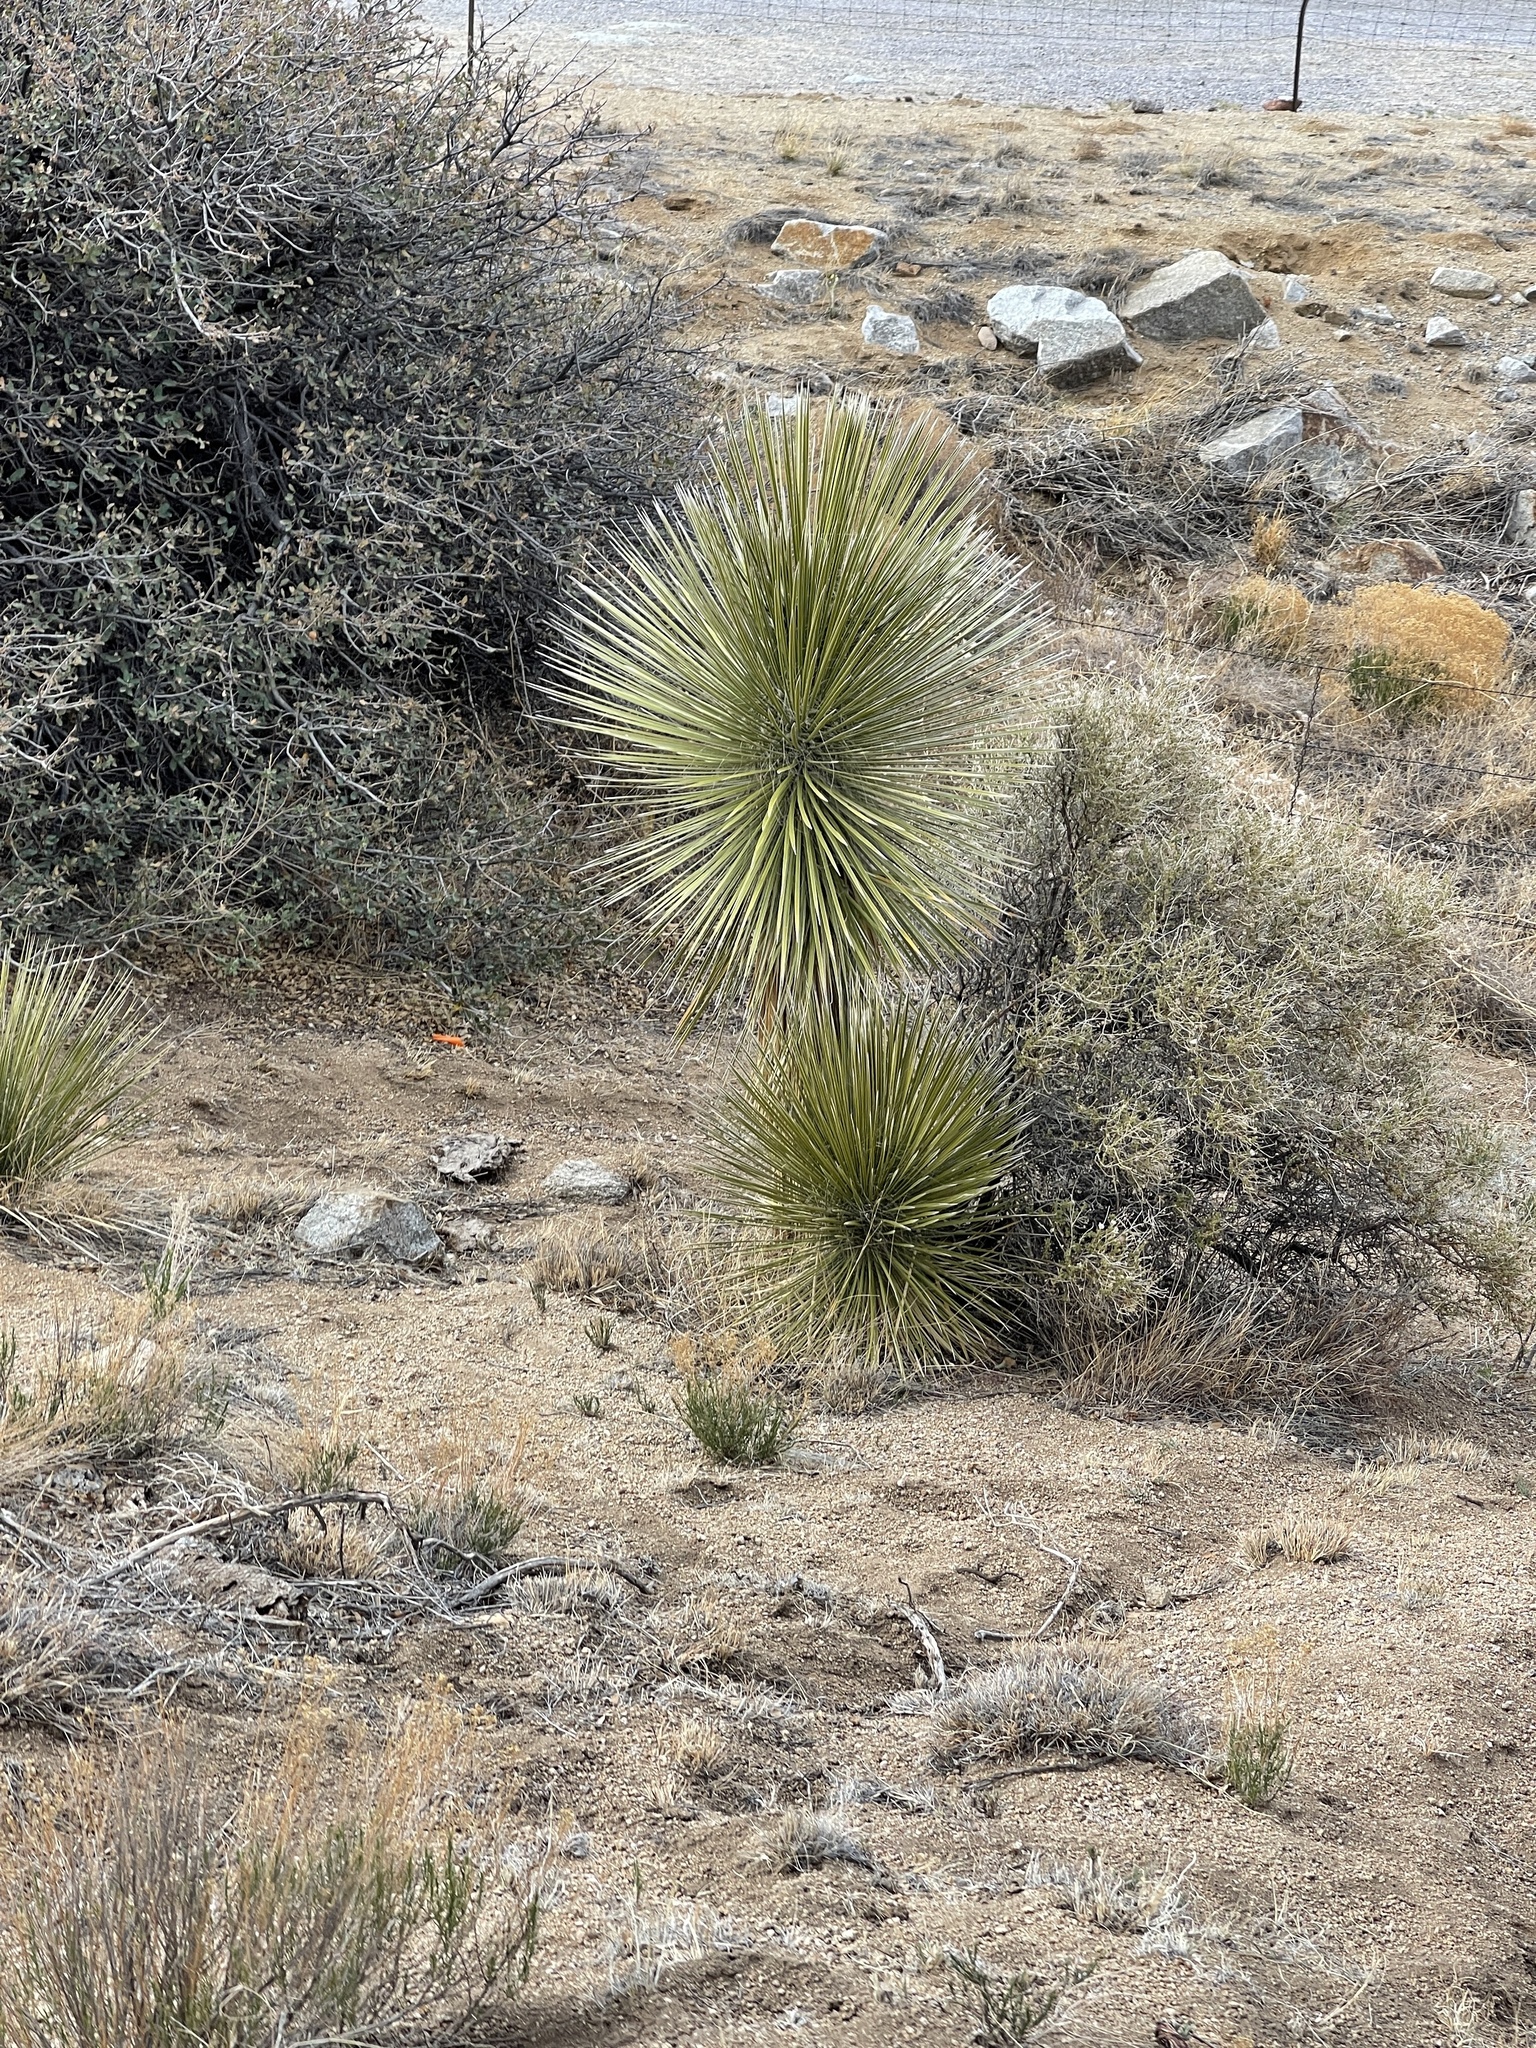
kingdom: Plantae
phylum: Tracheophyta
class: Liliopsida
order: Asparagales
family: Asparagaceae
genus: Yucca
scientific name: Yucca elata
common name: Palmella
